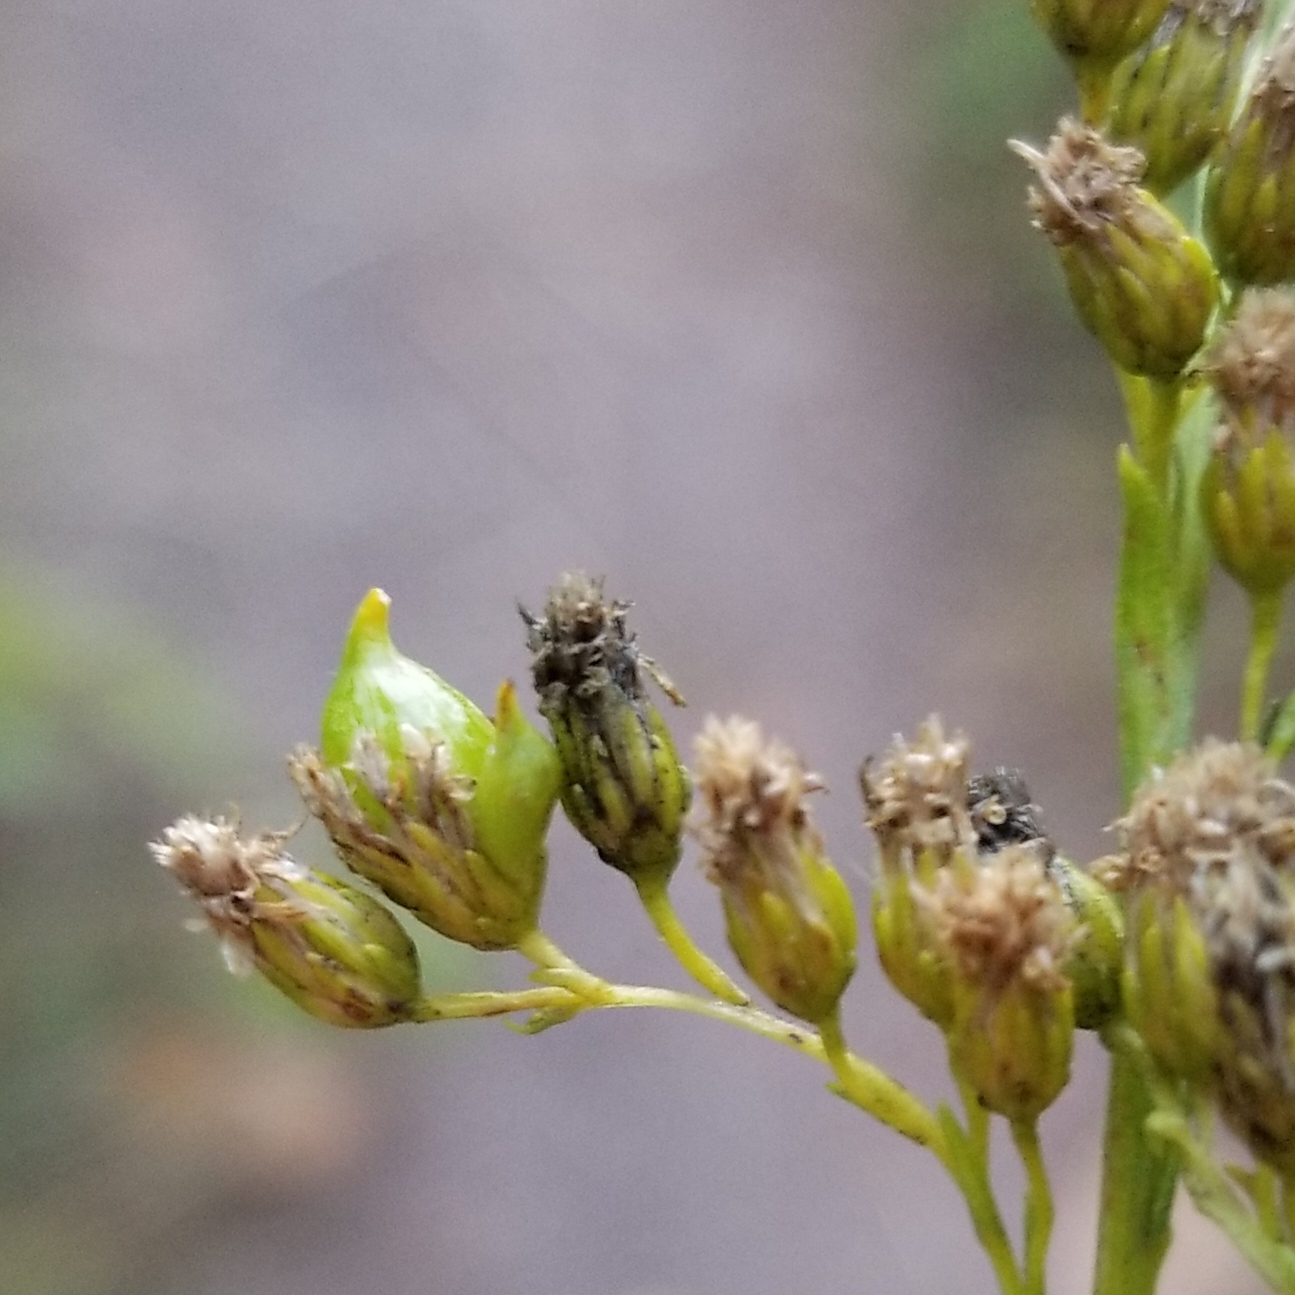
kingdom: Animalia
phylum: Arthropoda
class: Insecta
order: Diptera
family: Cecidomyiidae
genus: Schizomyia
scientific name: Schizomyia racemicola
